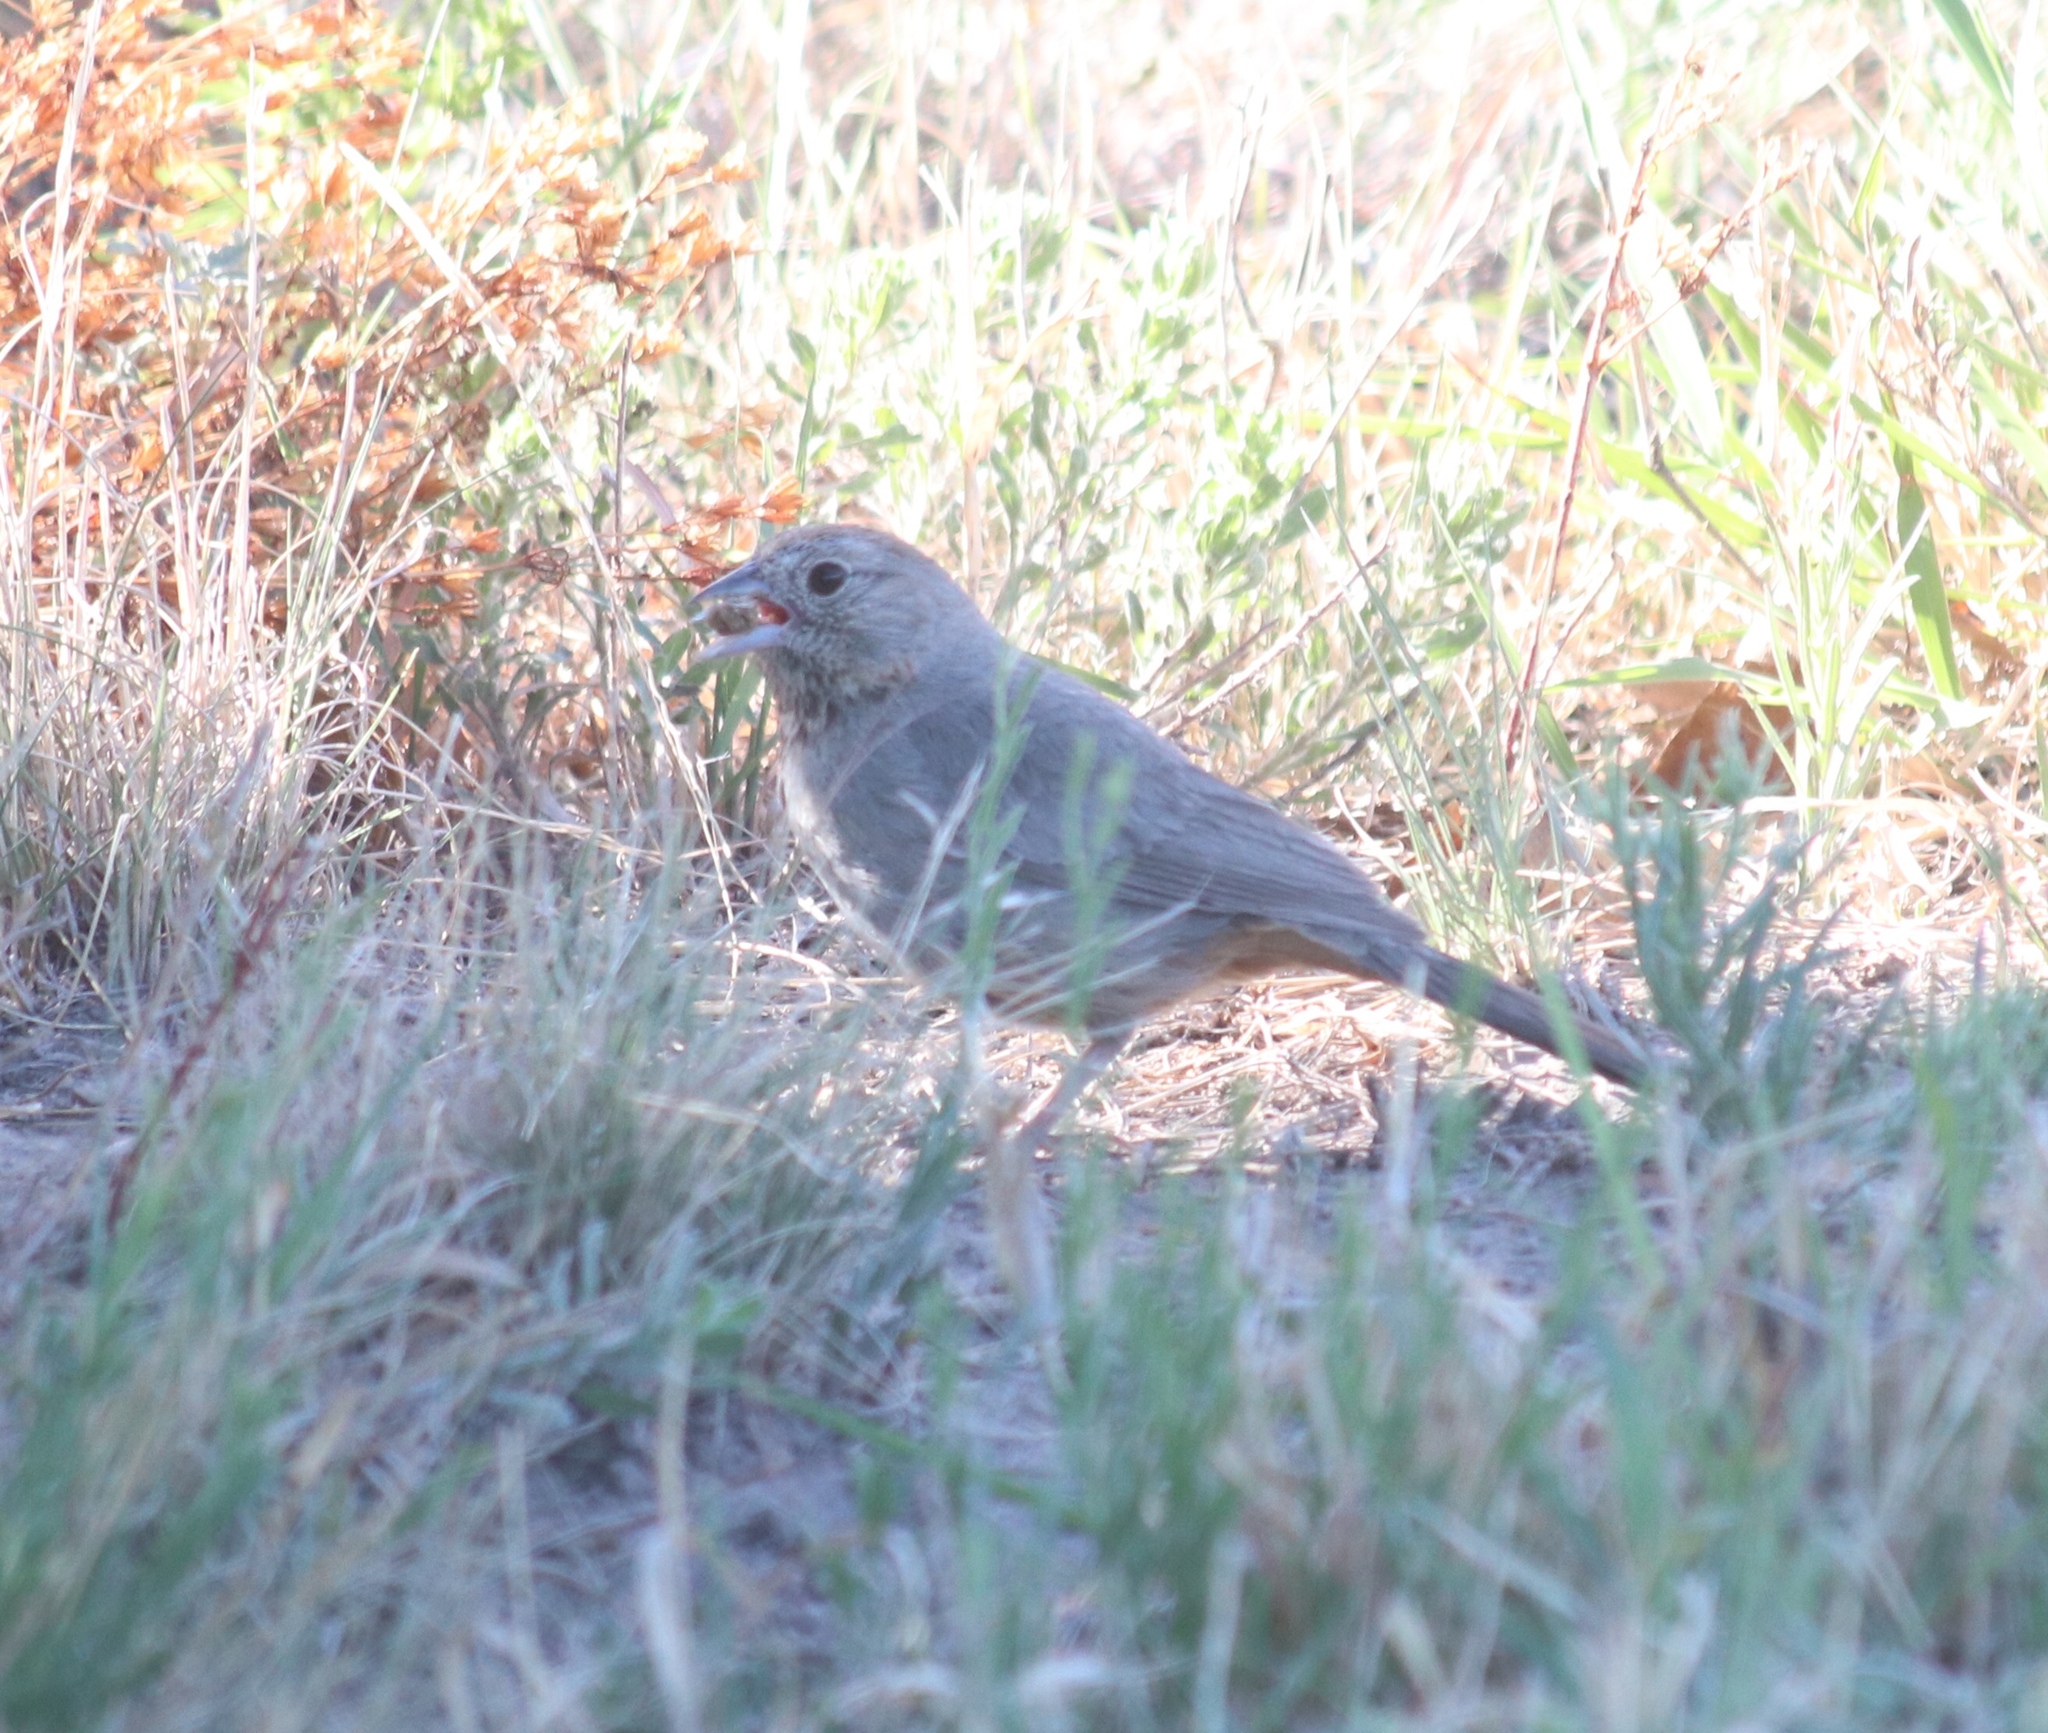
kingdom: Animalia
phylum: Chordata
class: Aves
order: Passeriformes
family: Passerellidae
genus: Melozone
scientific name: Melozone fusca
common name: Canyon towhee
